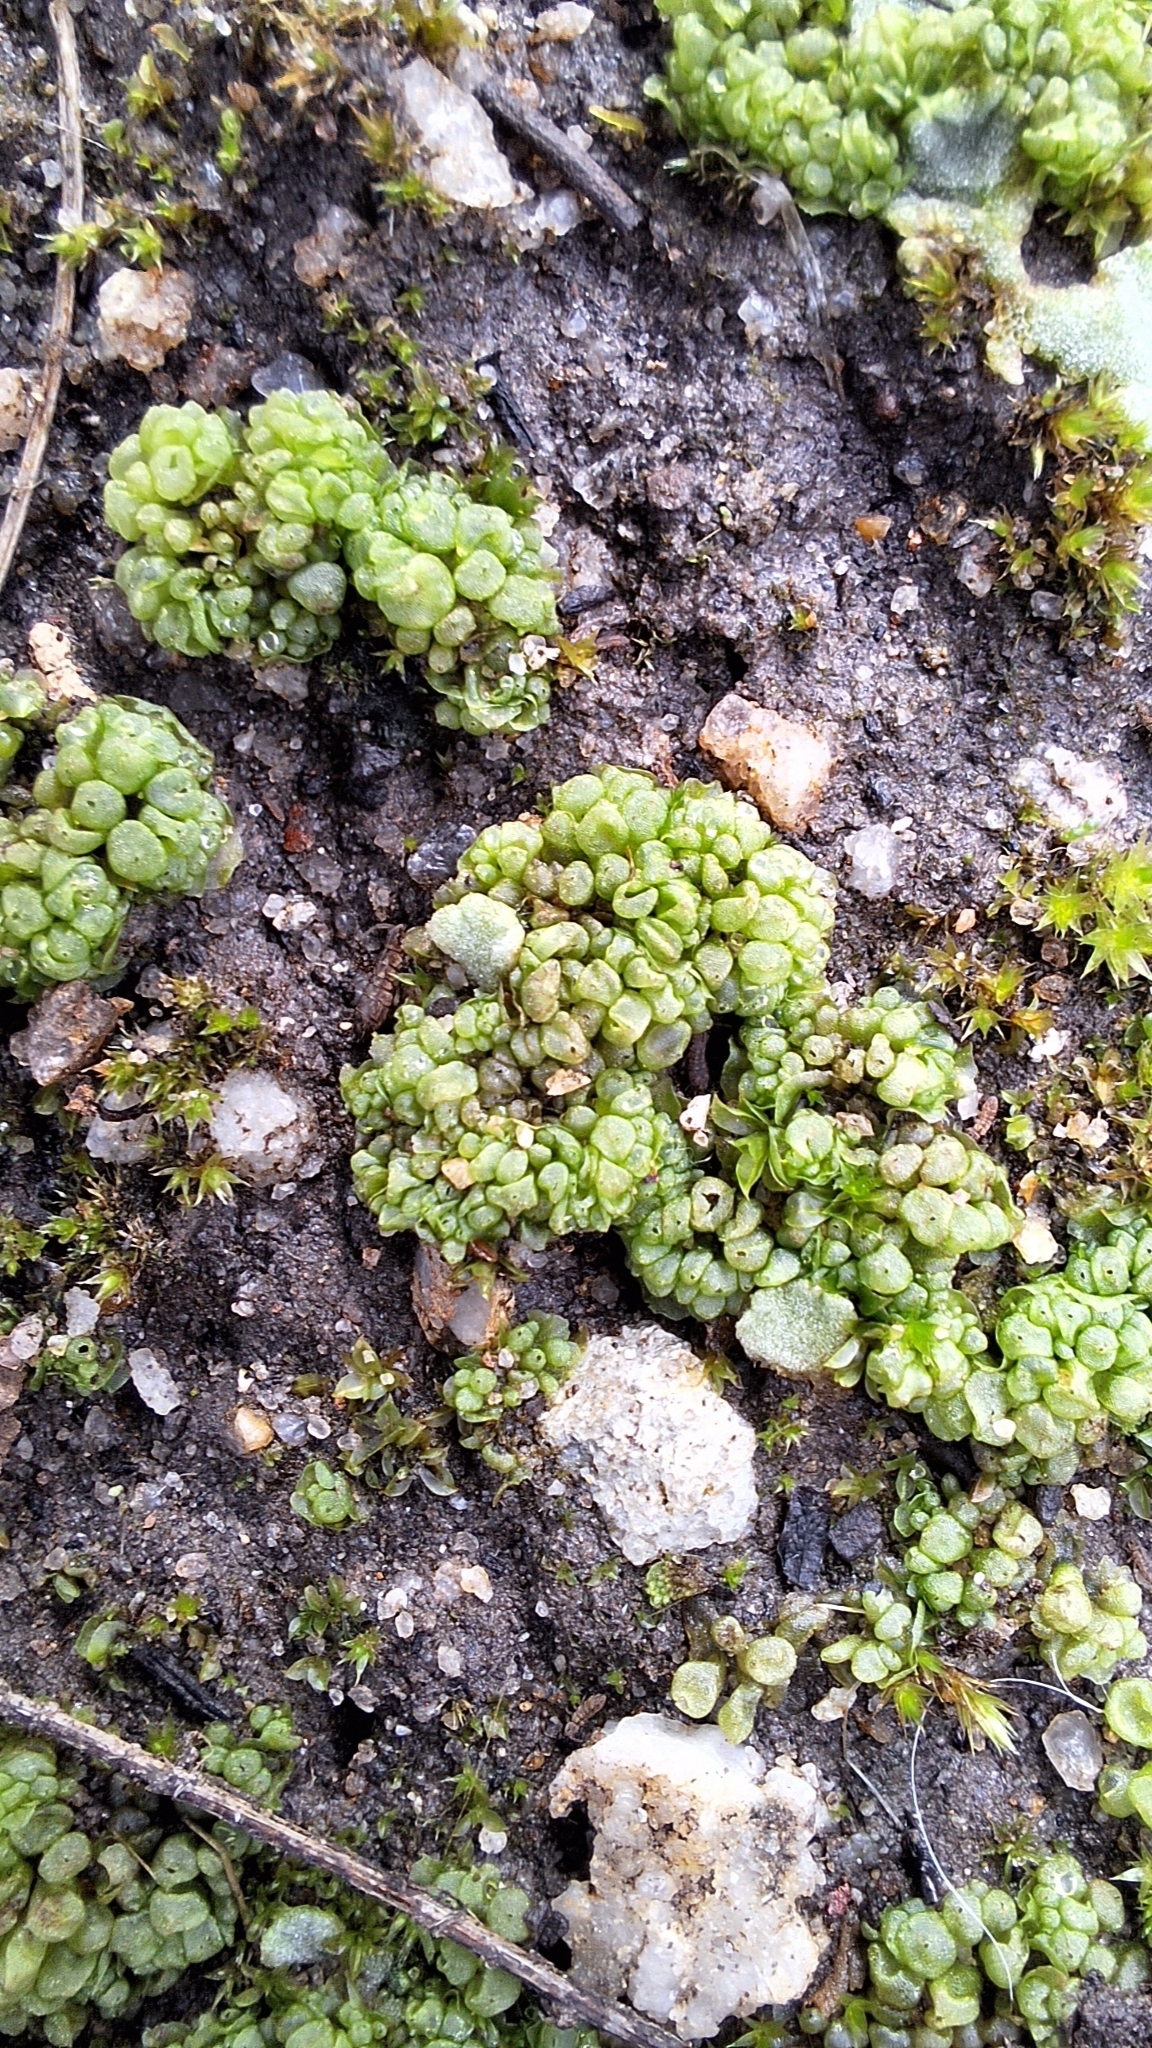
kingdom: Plantae
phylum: Marchantiophyta
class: Marchantiopsida
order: Sphaerocarpales
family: Sphaerocarpaceae
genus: Sphaerocarpos
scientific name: Sphaerocarpos texanus
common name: Texas balloonwort
